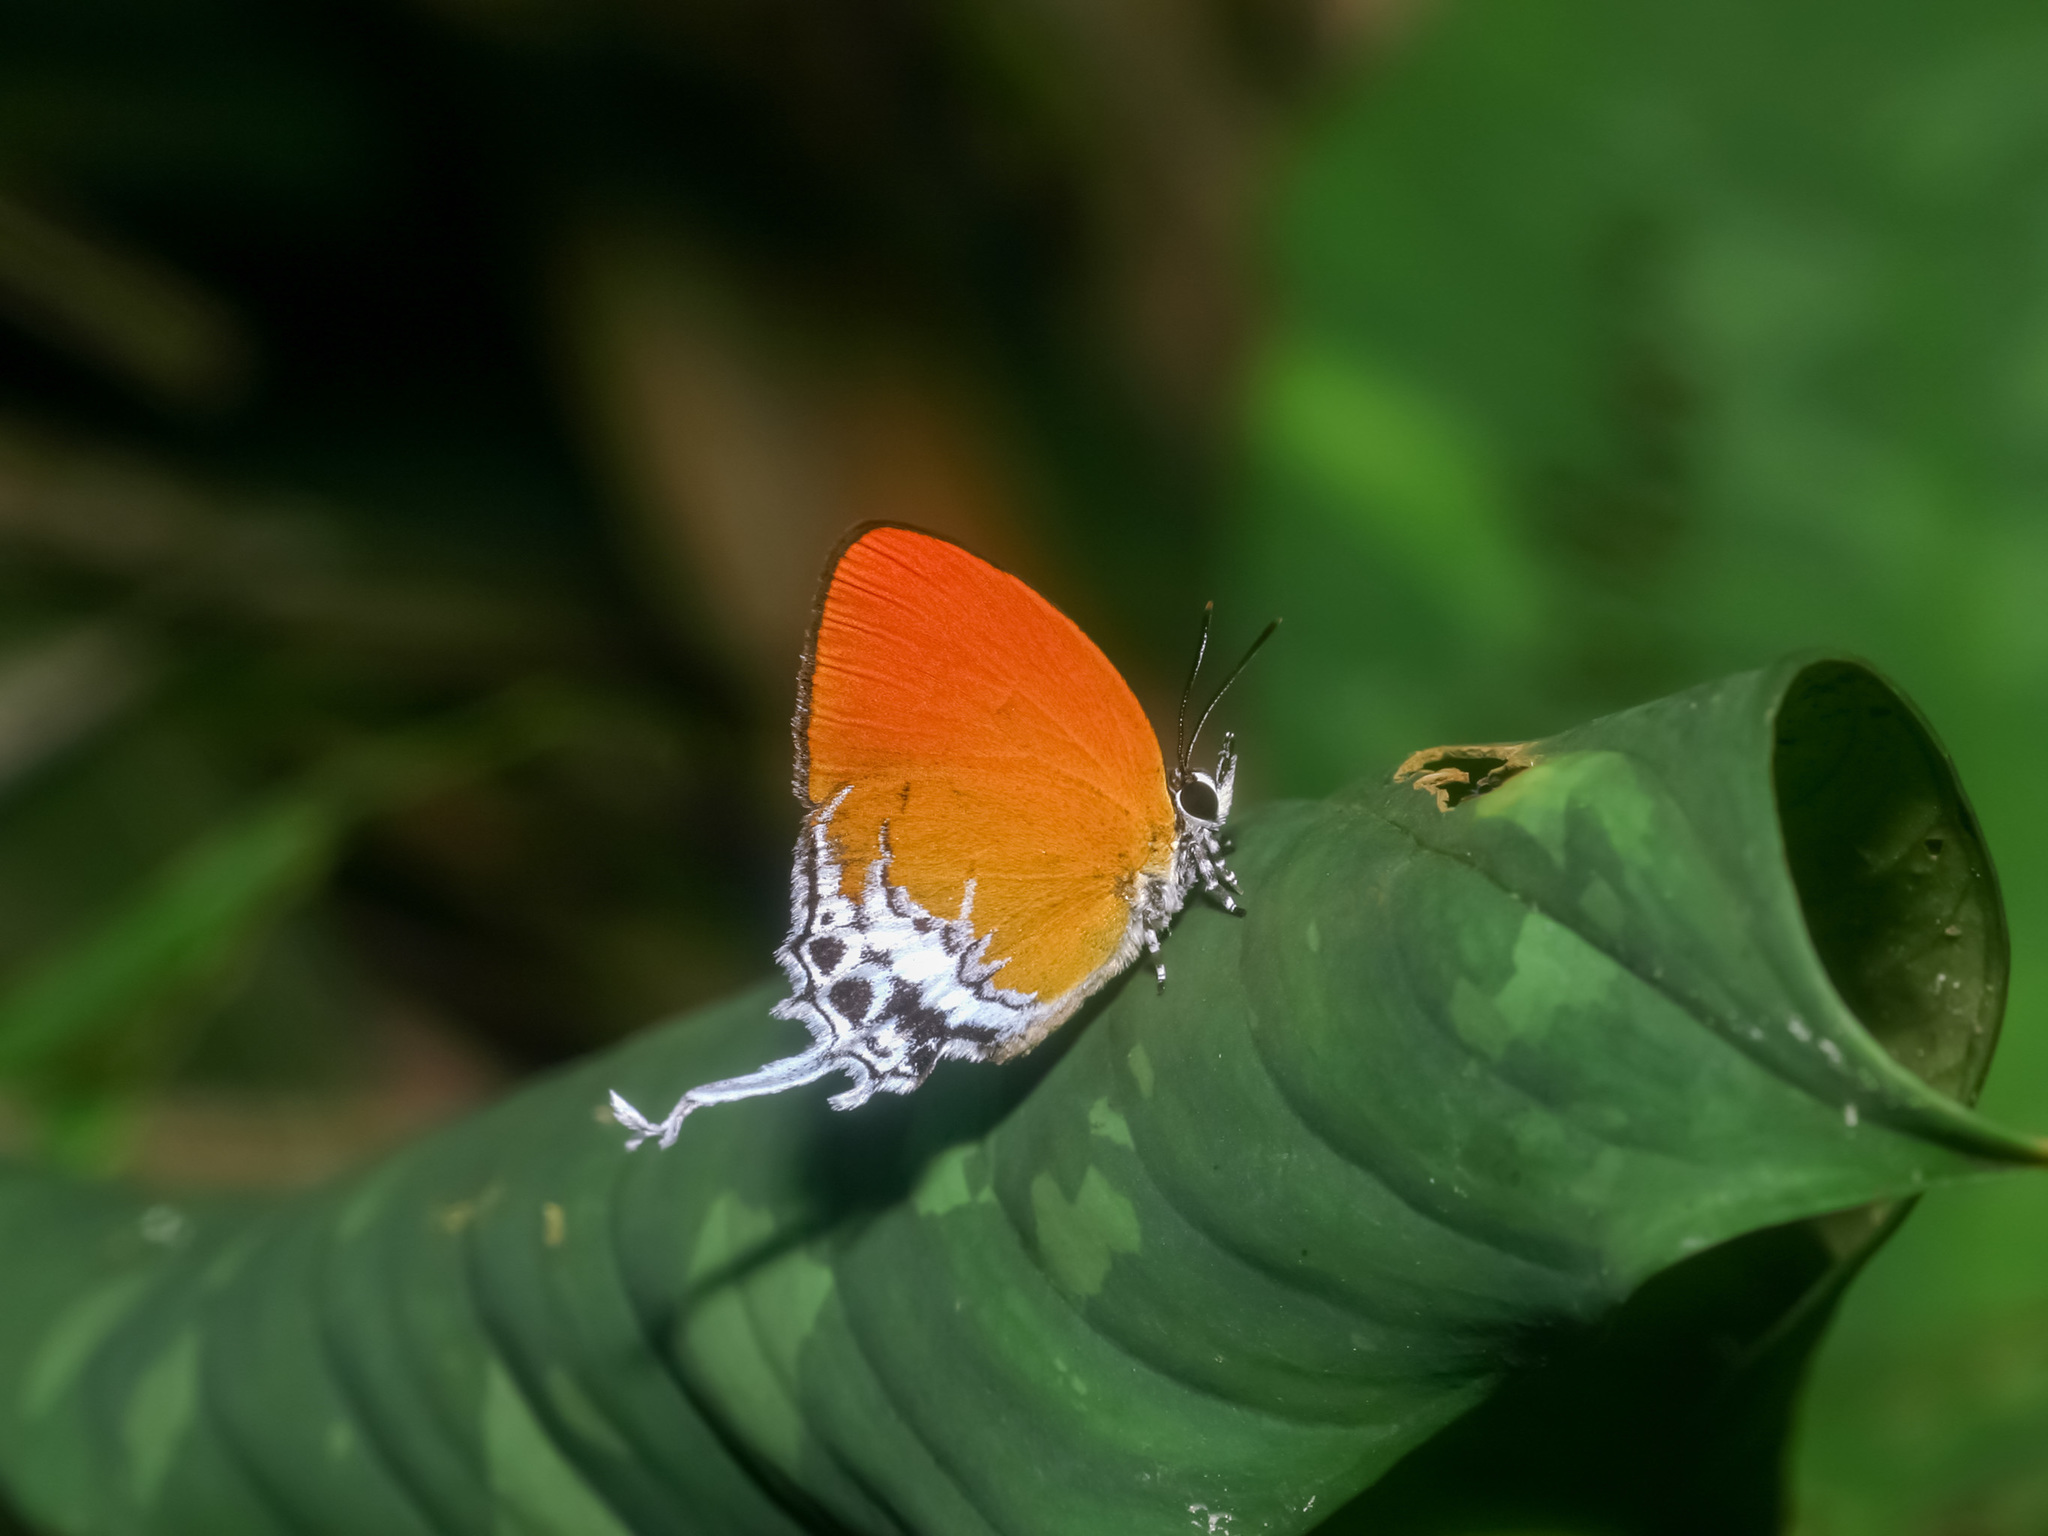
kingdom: Animalia
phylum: Arthropoda
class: Insecta
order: Lepidoptera
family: Lycaenidae
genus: Eooxylides
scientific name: Eooxylides tharis
